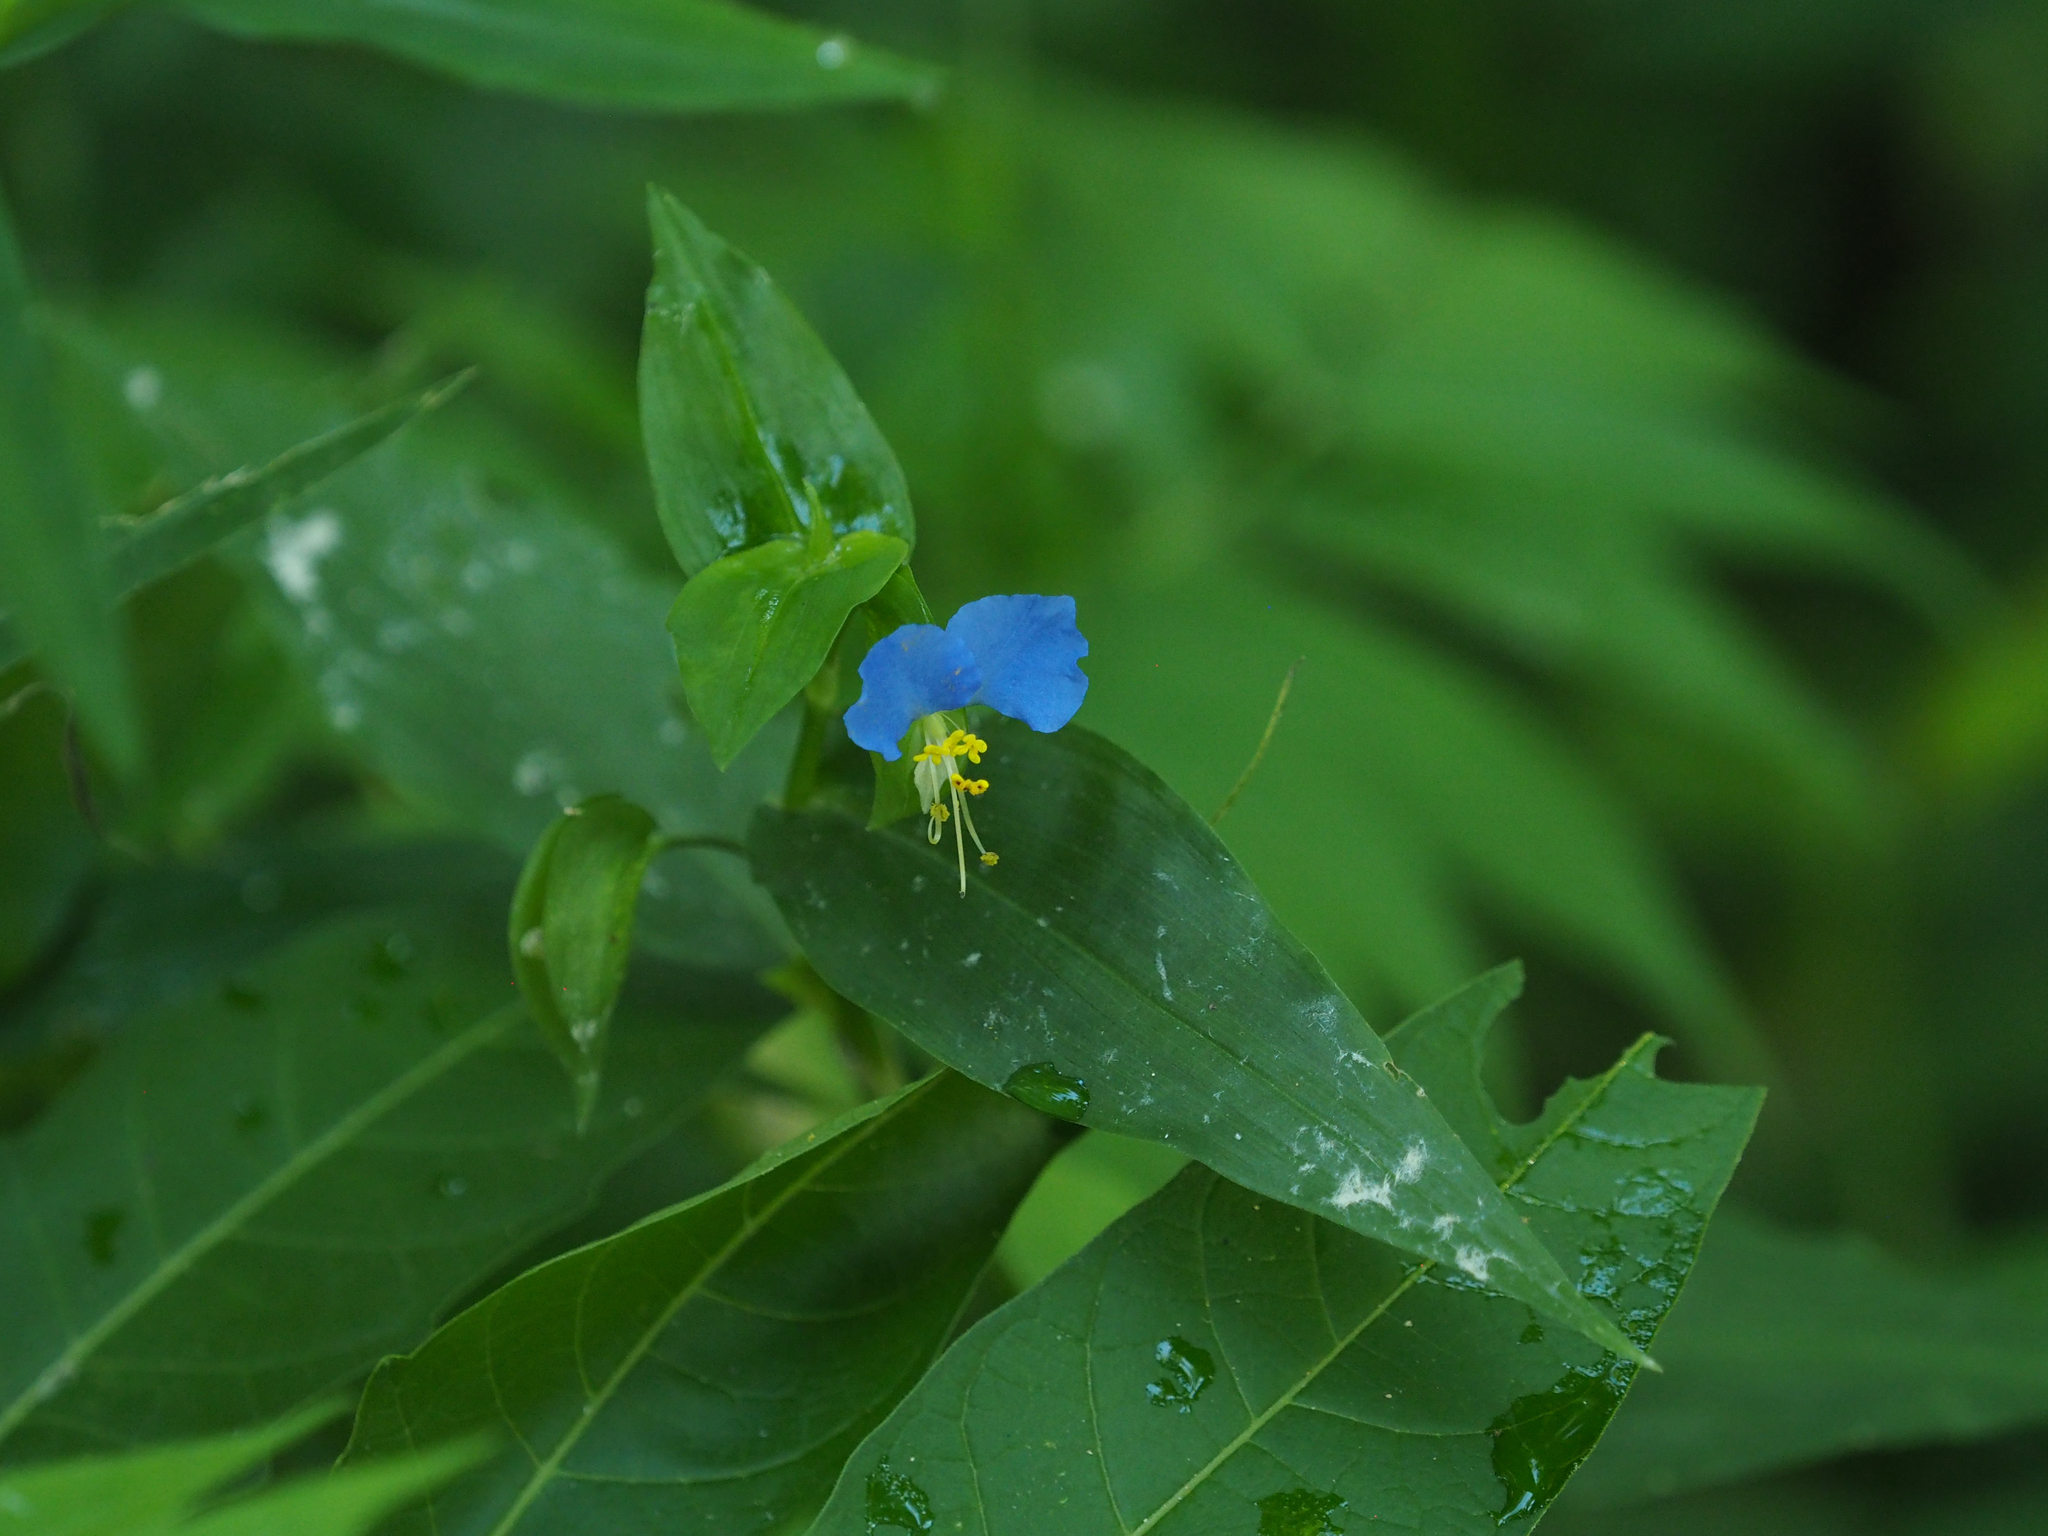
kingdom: Plantae
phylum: Tracheophyta
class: Liliopsida
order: Commelinales
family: Commelinaceae
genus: Commelina
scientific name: Commelina communis
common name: Asiatic dayflower
